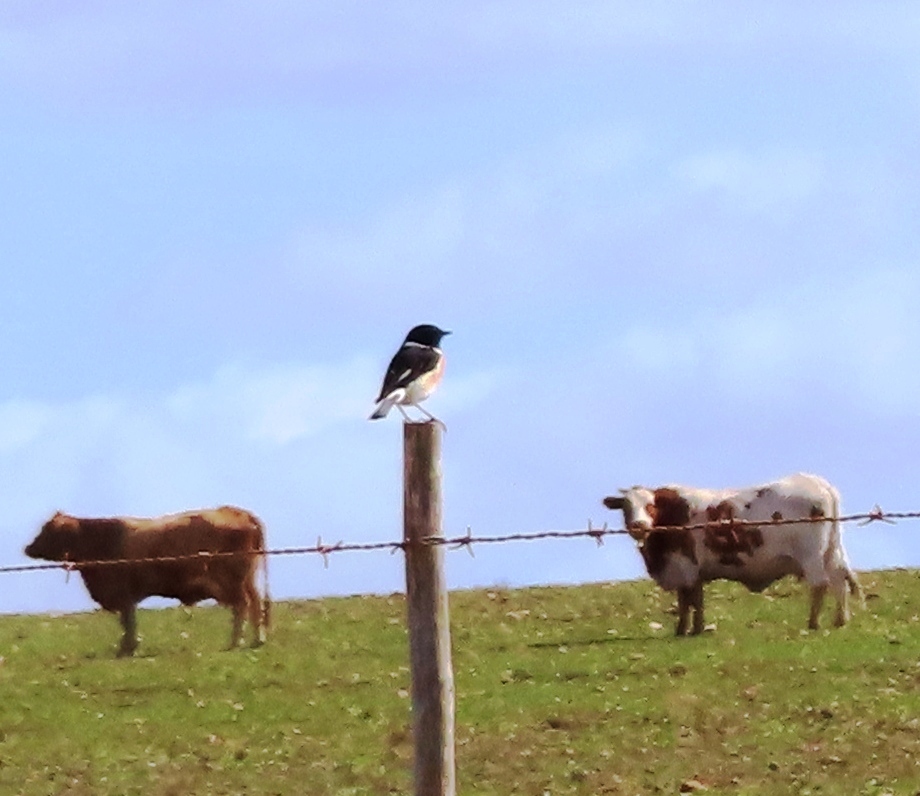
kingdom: Animalia
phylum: Chordata
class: Aves
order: Passeriformes
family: Muscicapidae
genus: Saxicola
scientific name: Saxicola torquatus
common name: African stonechat
